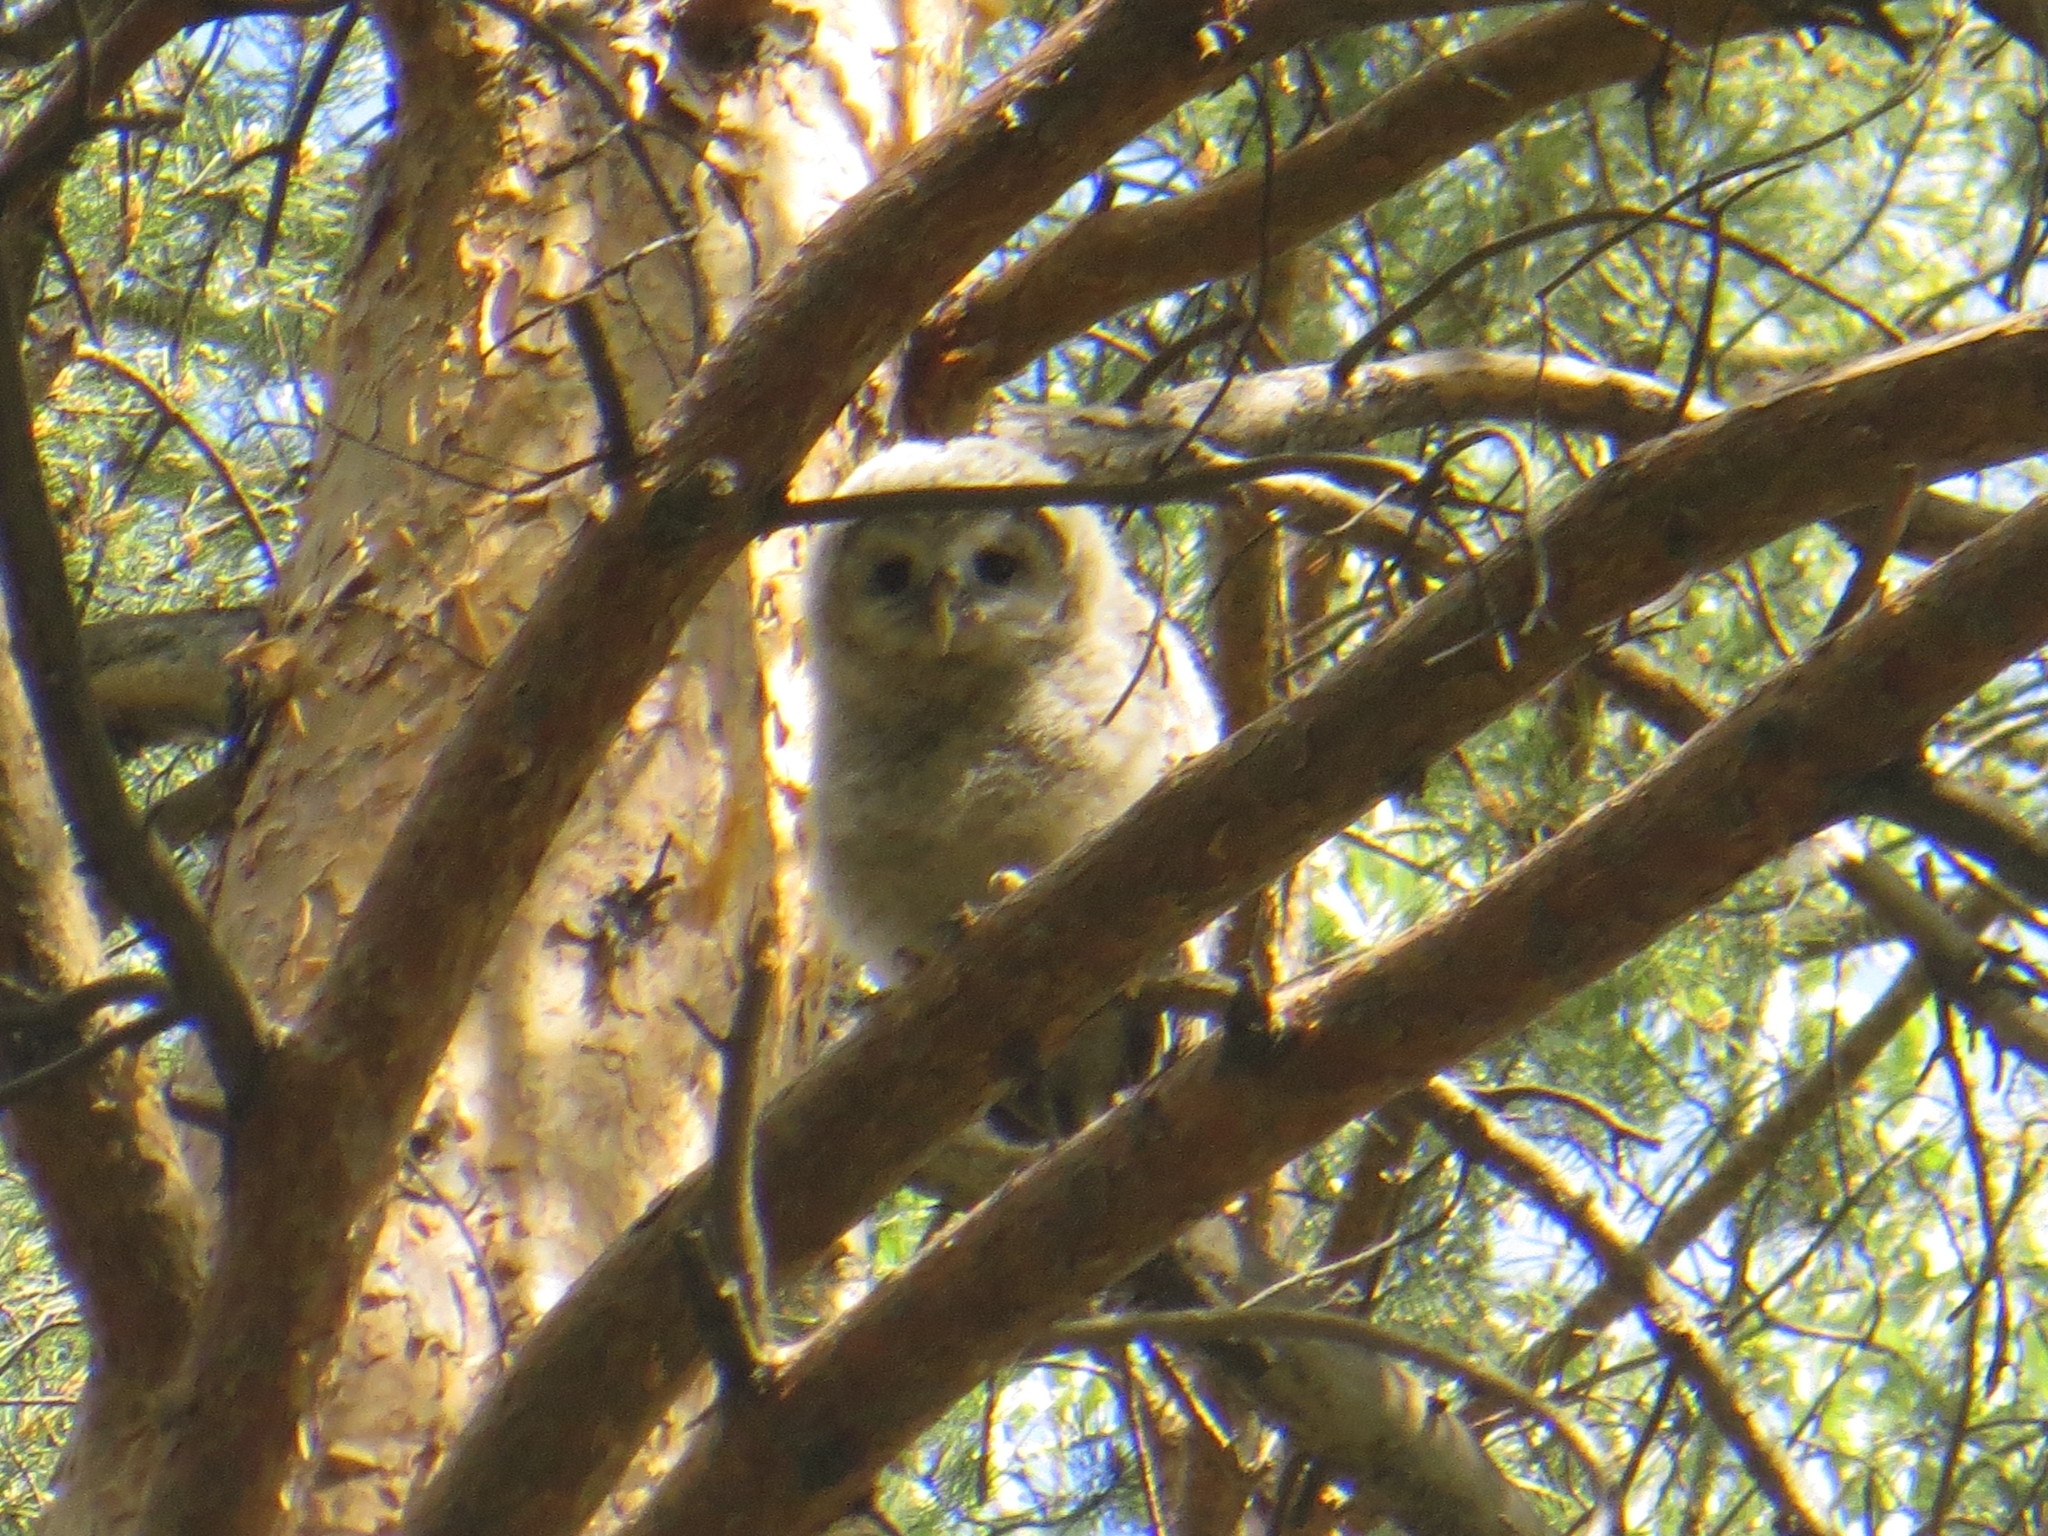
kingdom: Animalia
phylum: Chordata
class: Aves
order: Strigiformes
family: Strigidae
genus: Strix
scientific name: Strix uralensis
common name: Ural owl
